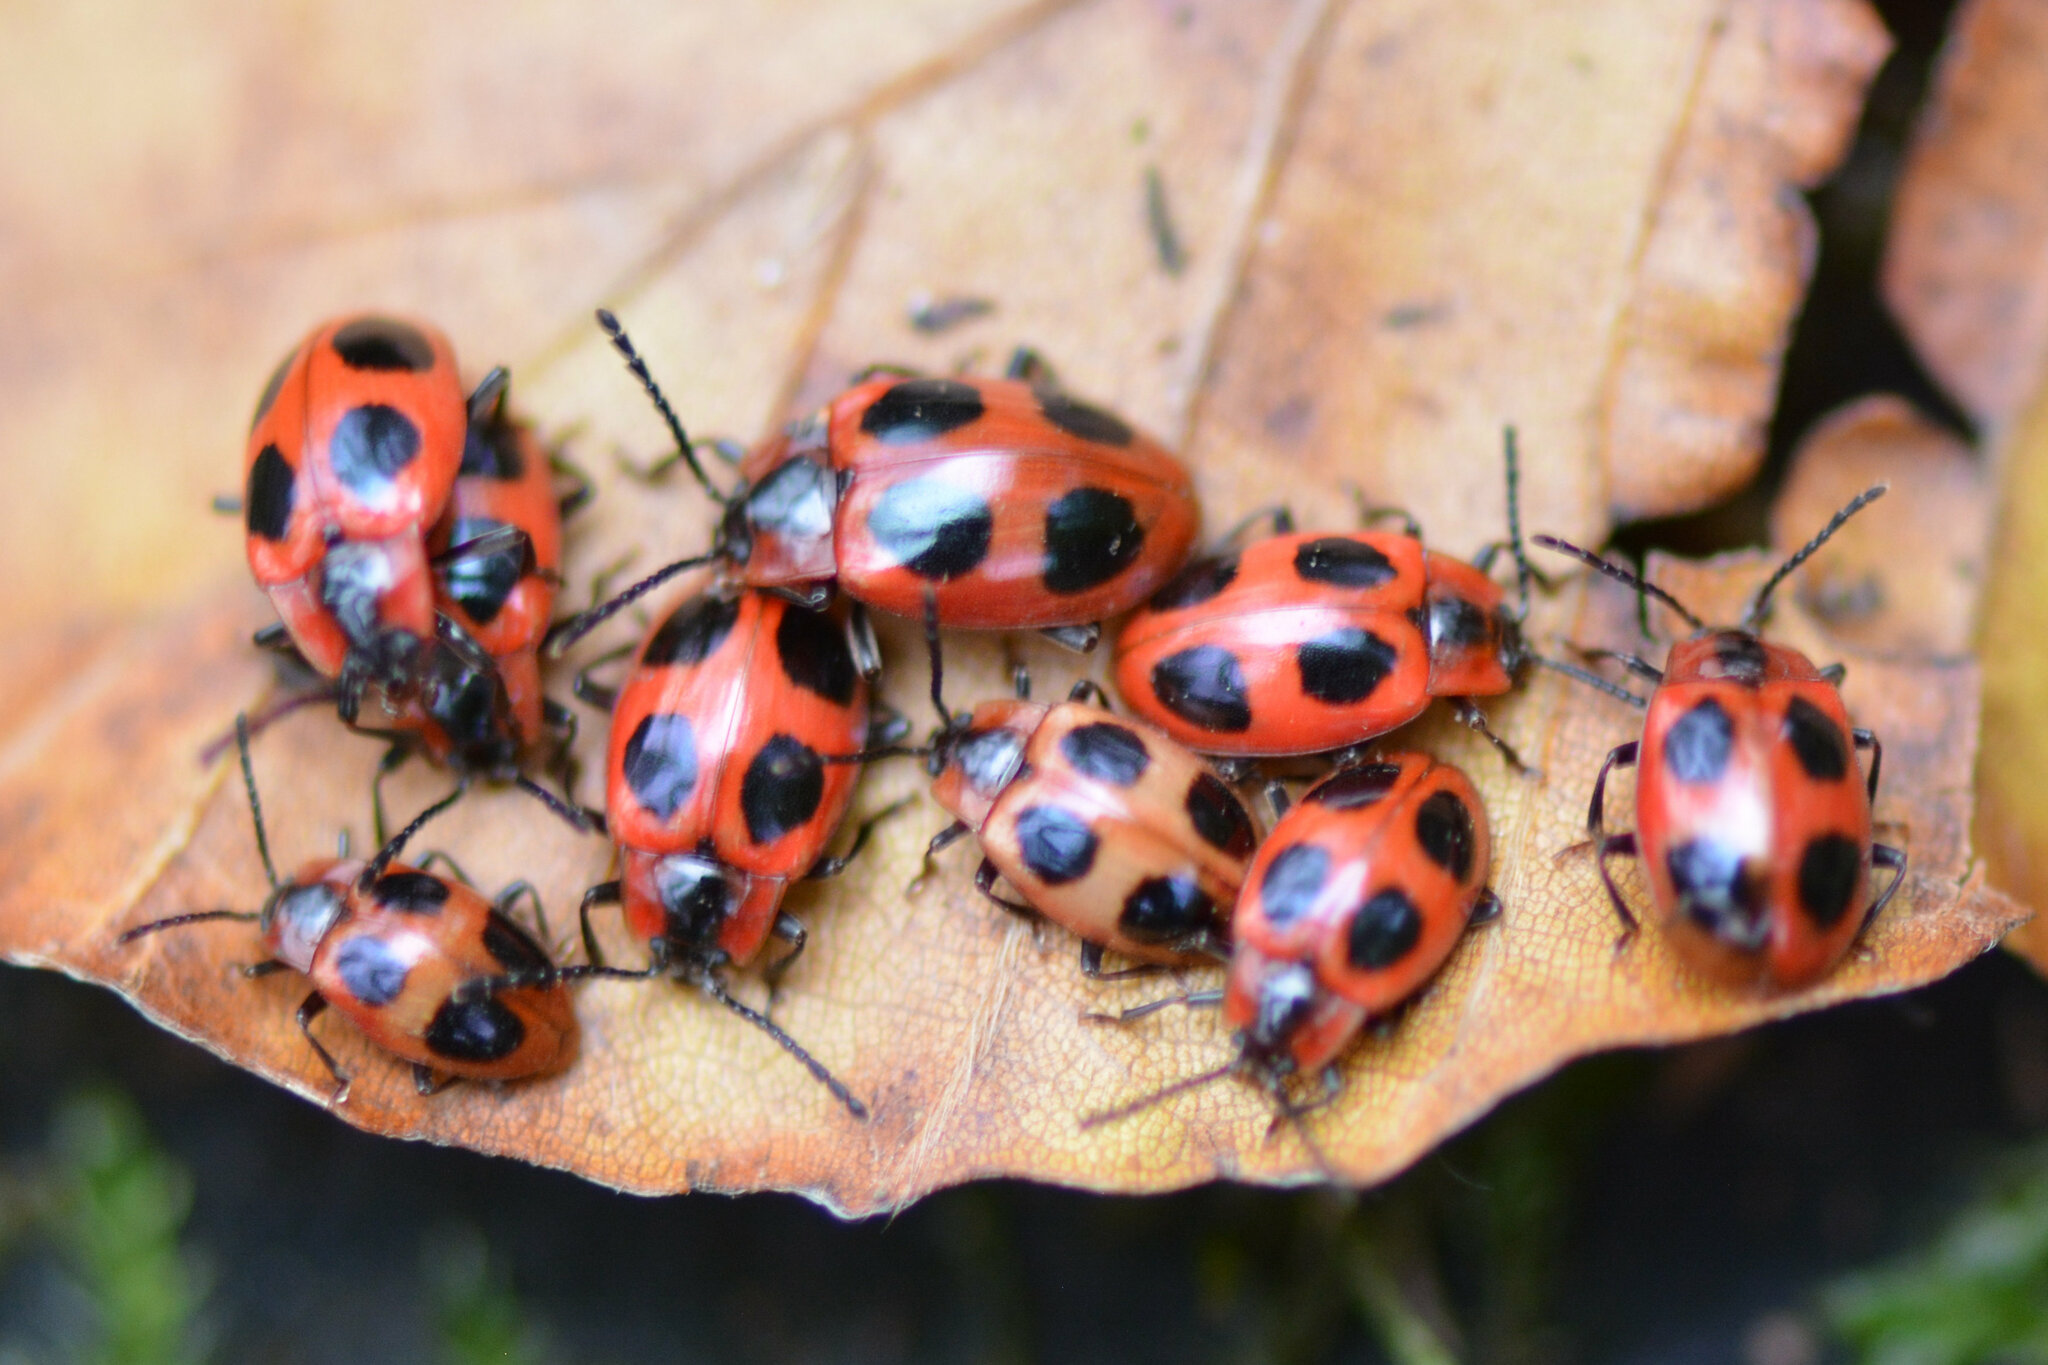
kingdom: Animalia
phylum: Arthropoda
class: Insecta
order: Coleoptera
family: Endomychidae
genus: Endomychus
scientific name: Endomychus coccineus
